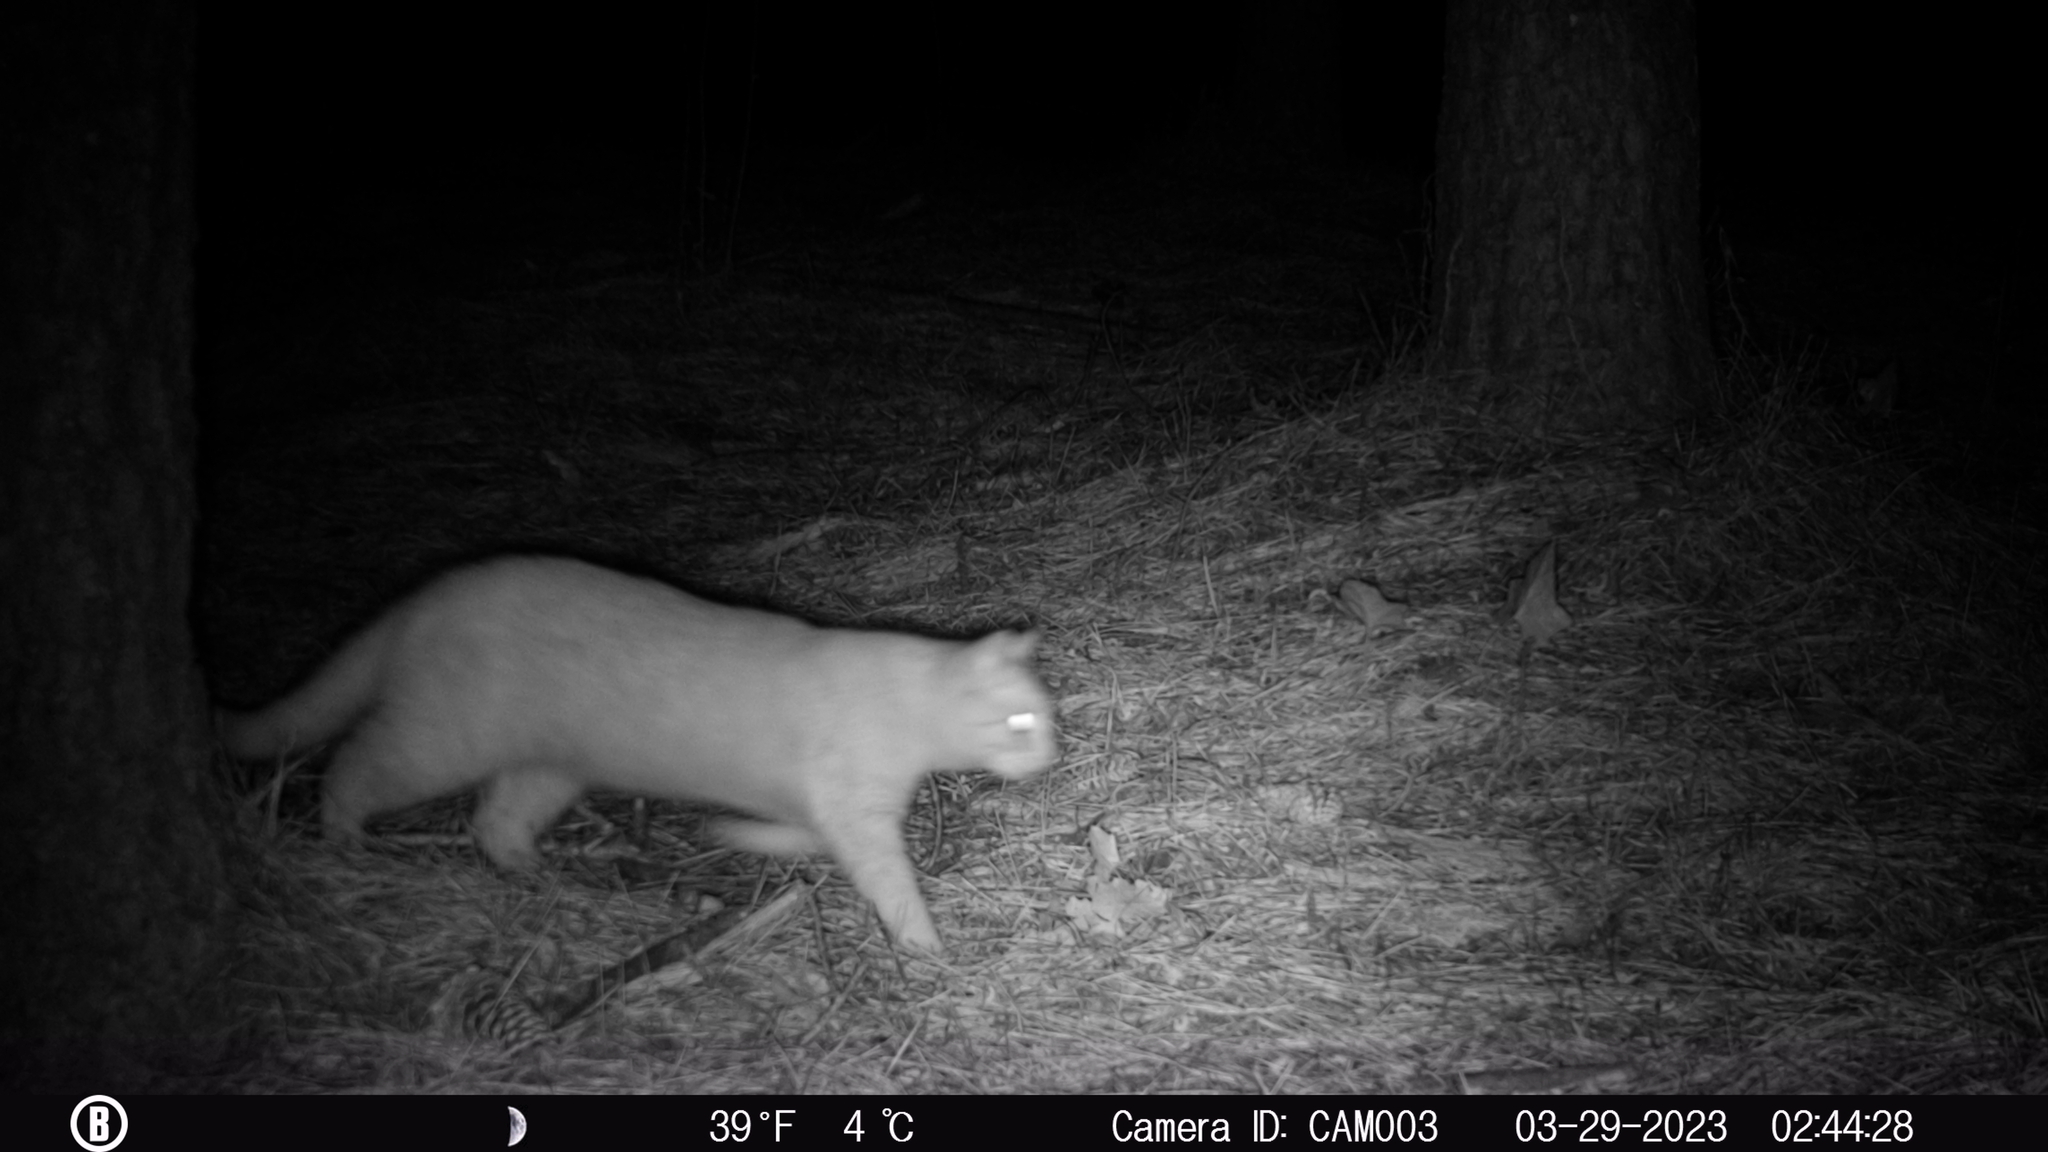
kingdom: Animalia
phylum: Chordata
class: Mammalia
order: Carnivora
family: Felidae
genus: Felis
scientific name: Felis catus
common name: Domestic cat
